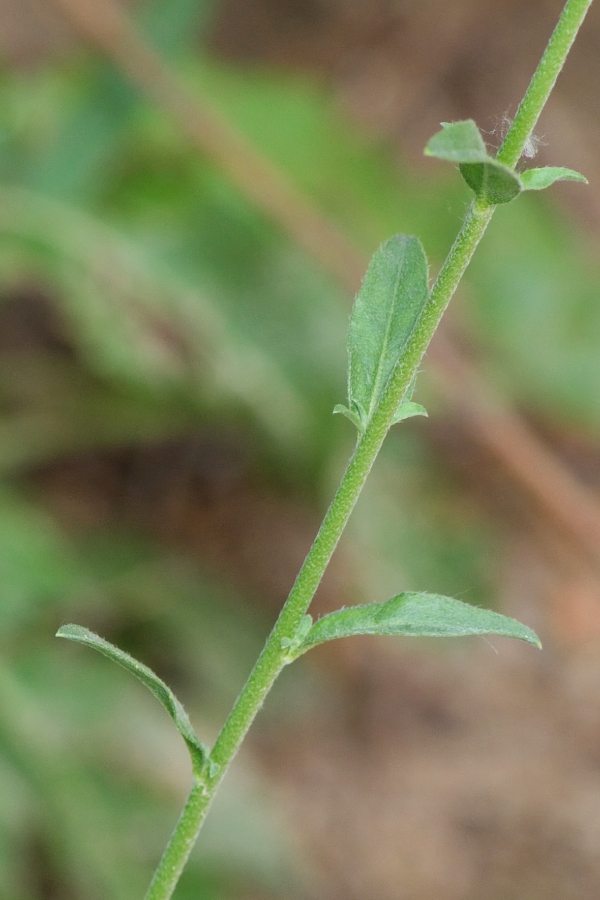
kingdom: Plantae
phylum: Tracheophyta
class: Magnoliopsida
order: Brassicales
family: Brassicaceae
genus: Berteroa
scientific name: Berteroa incana
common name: Hoary alison
